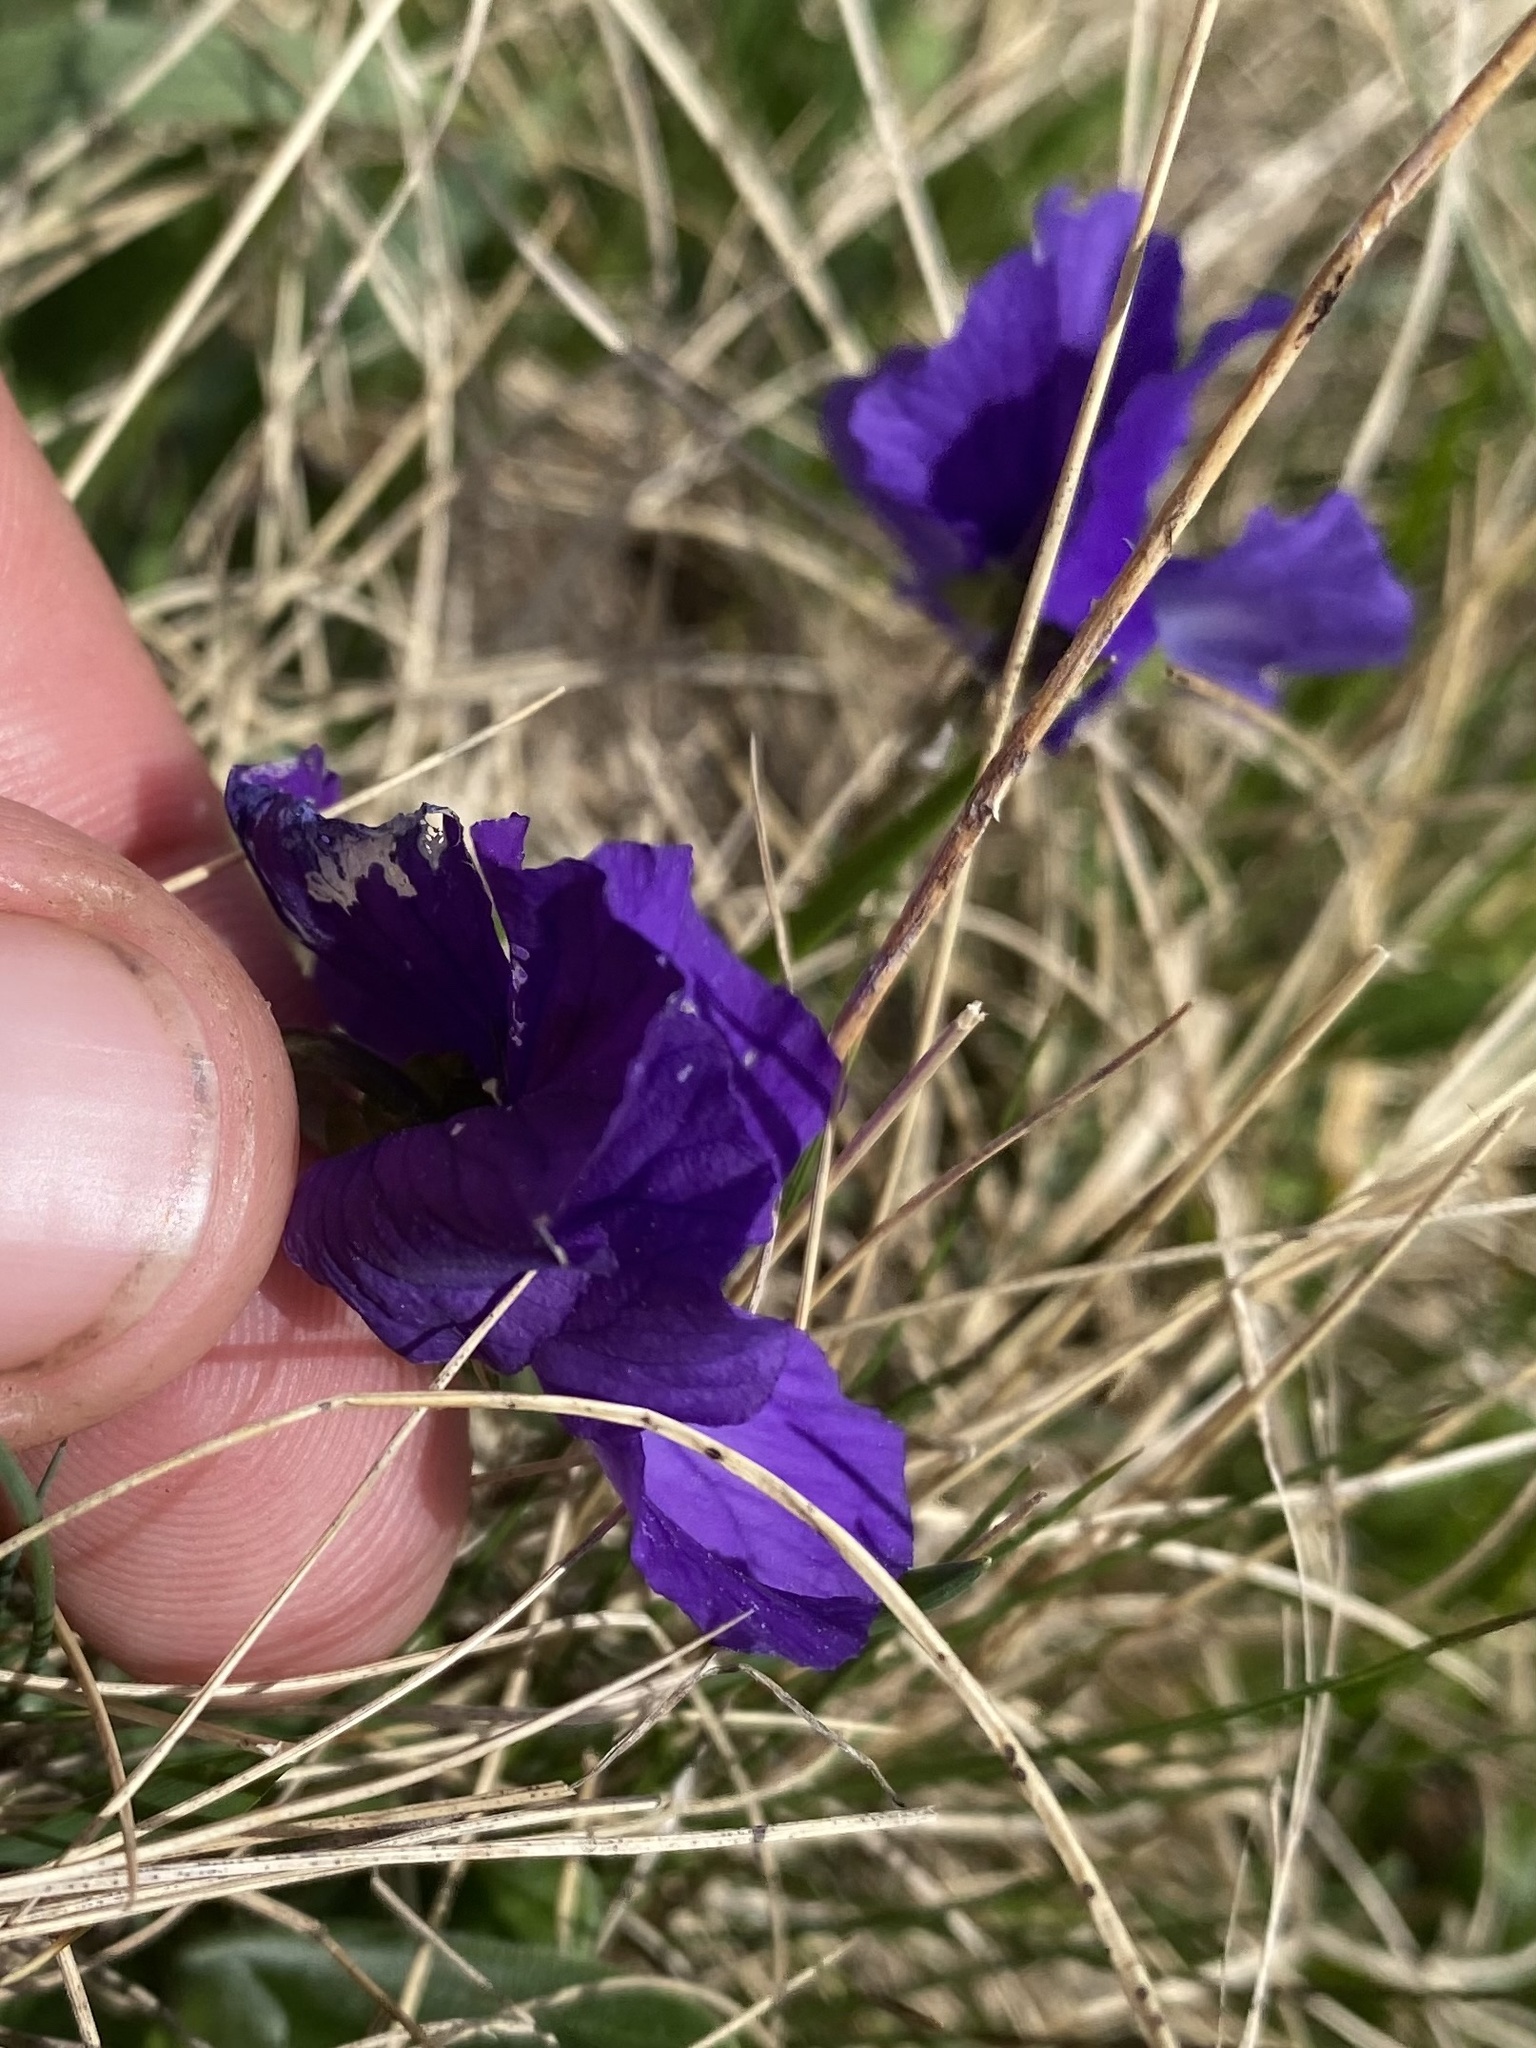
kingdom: Plantae
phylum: Tracheophyta
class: Magnoliopsida
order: Malpighiales
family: Violaceae
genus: Viola
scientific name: Viola oreades
